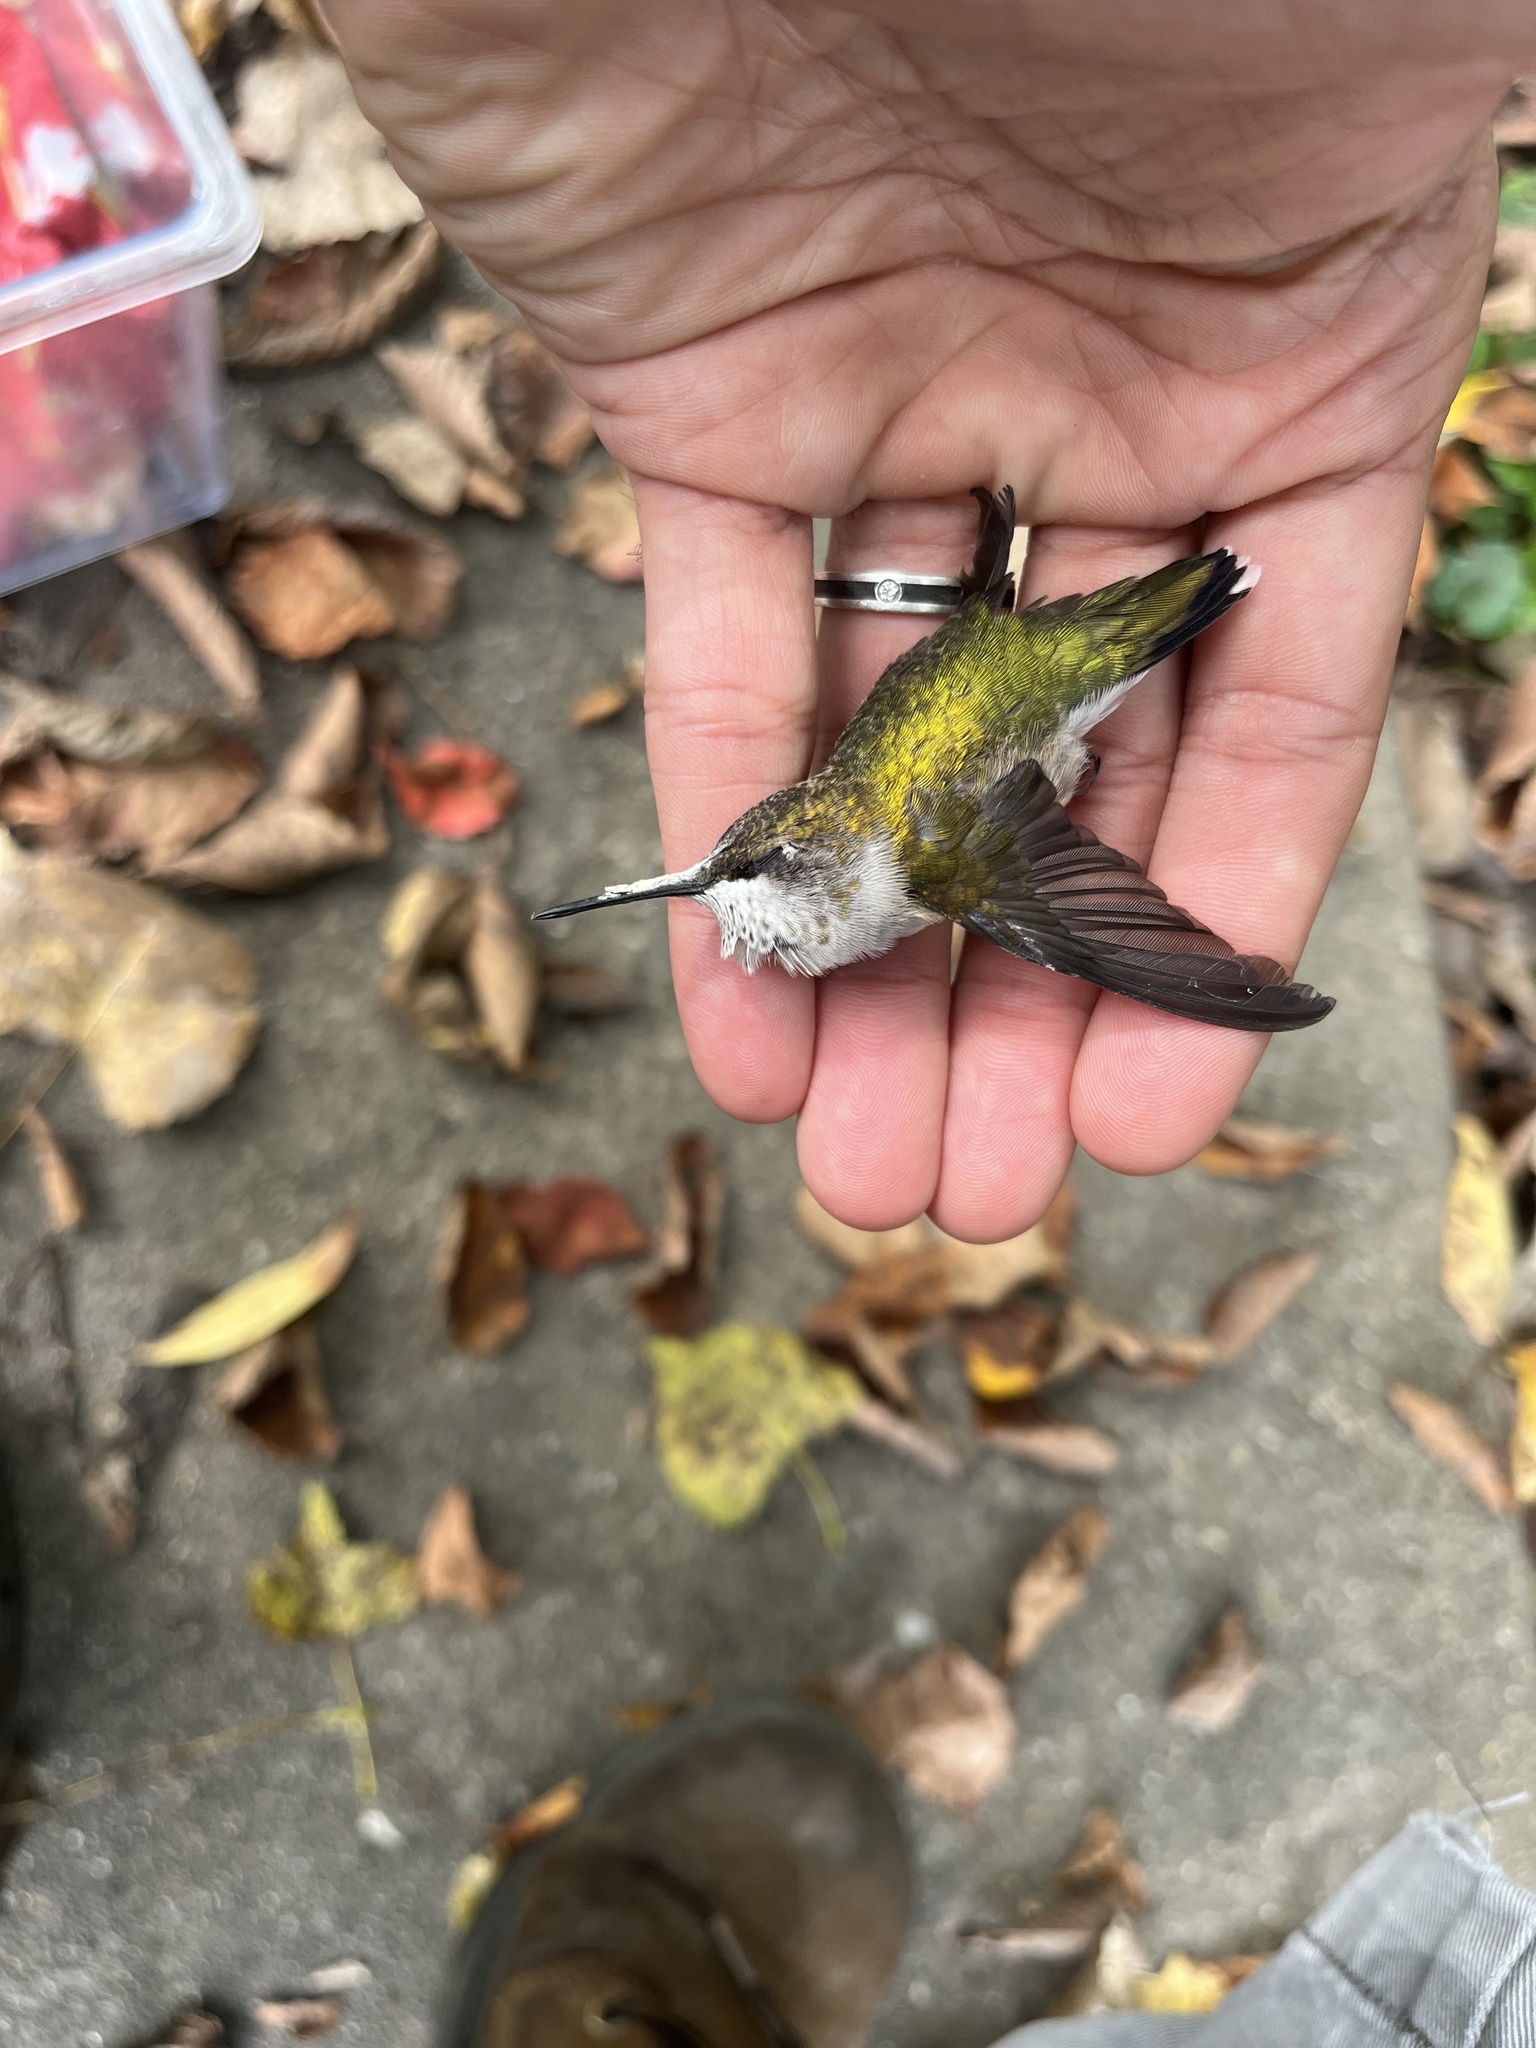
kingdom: Animalia
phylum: Chordata
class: Aves
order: Apodiformes
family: Trochilidae
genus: Archilochus
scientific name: Archilochus colubris
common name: Ruby-throated hummingbird
